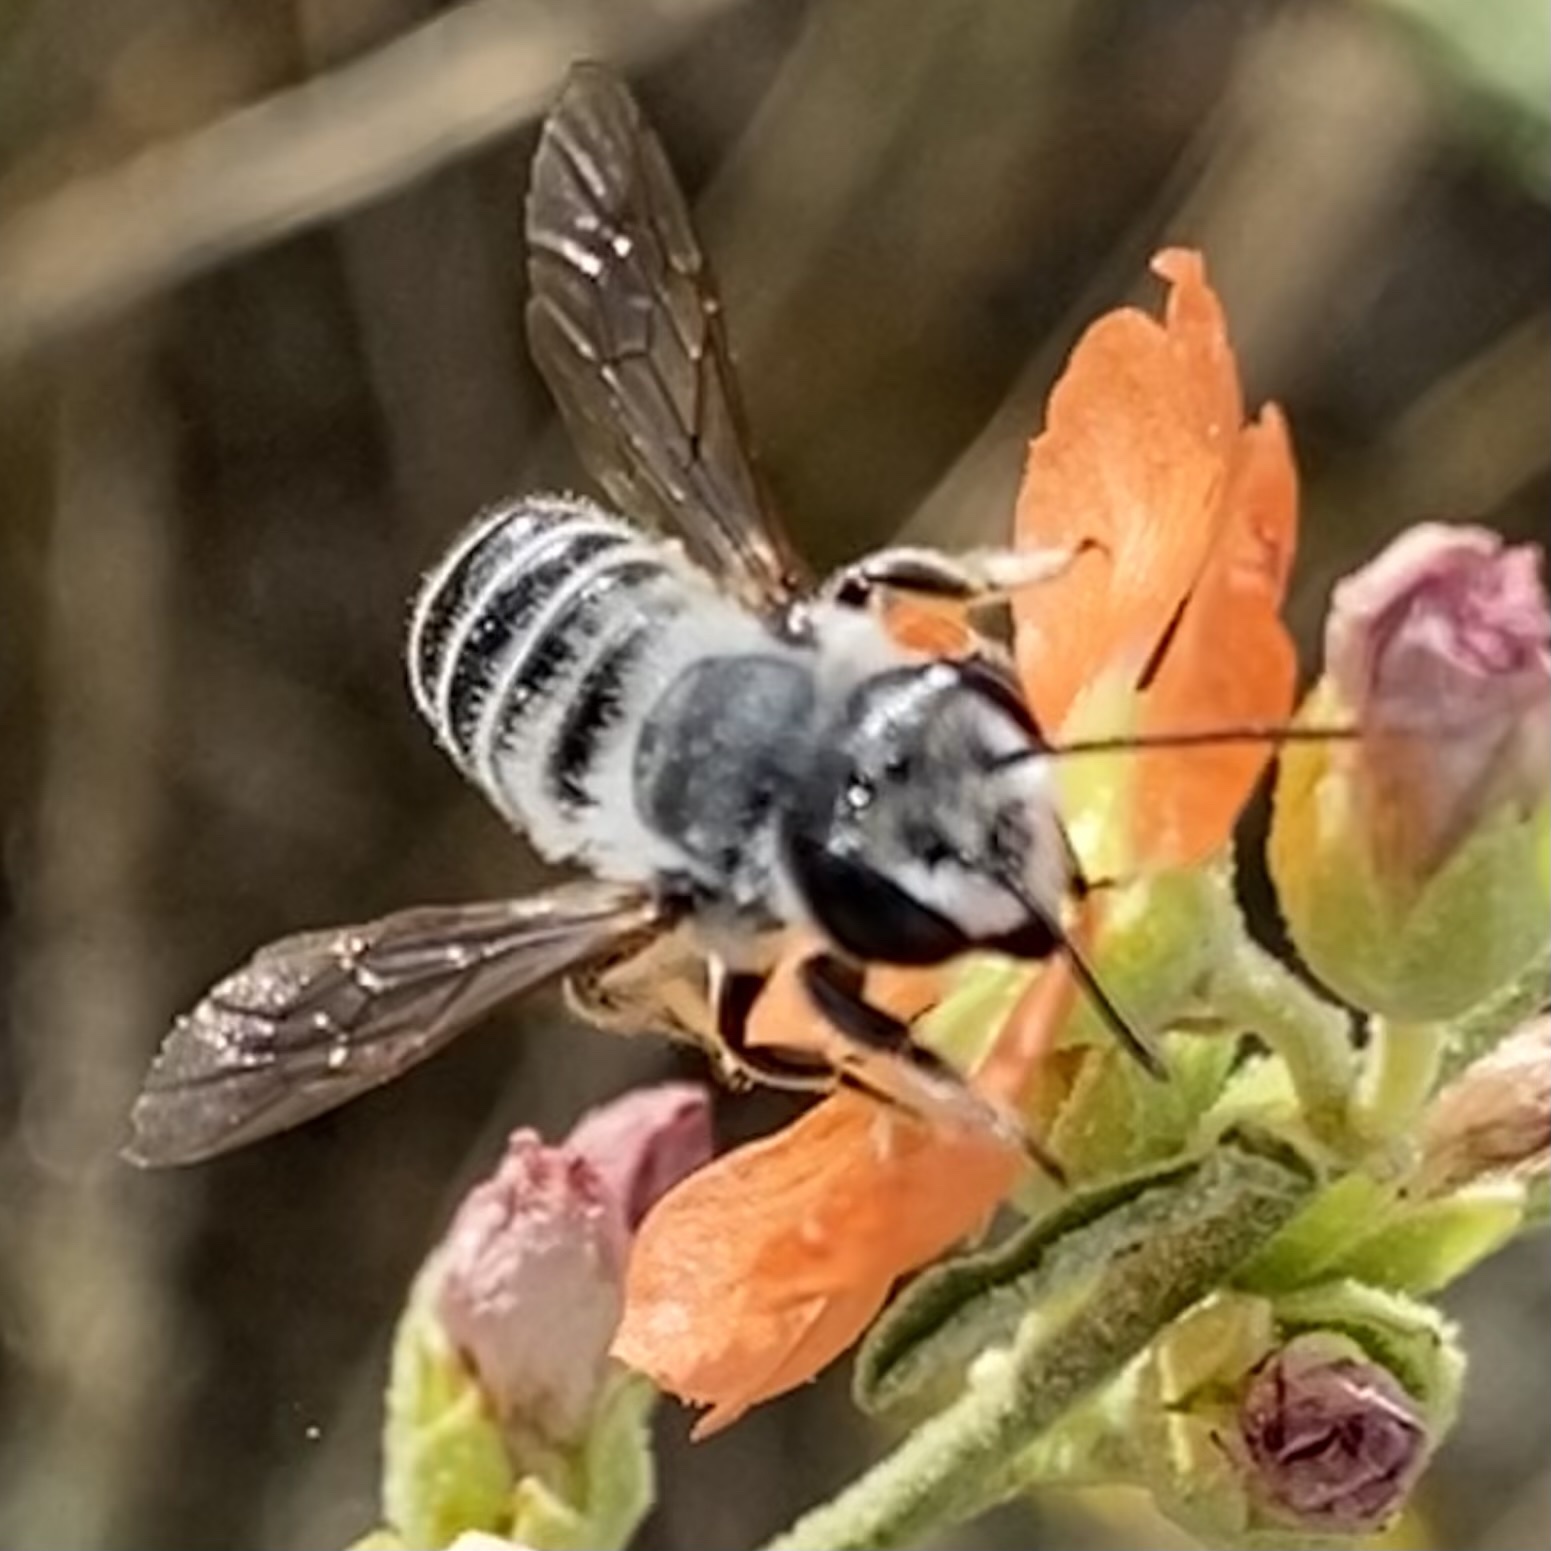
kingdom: Animalia
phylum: Arthropoda
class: Insecta
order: Hymenoptera
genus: Litomegachile
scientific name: Litomegachile
